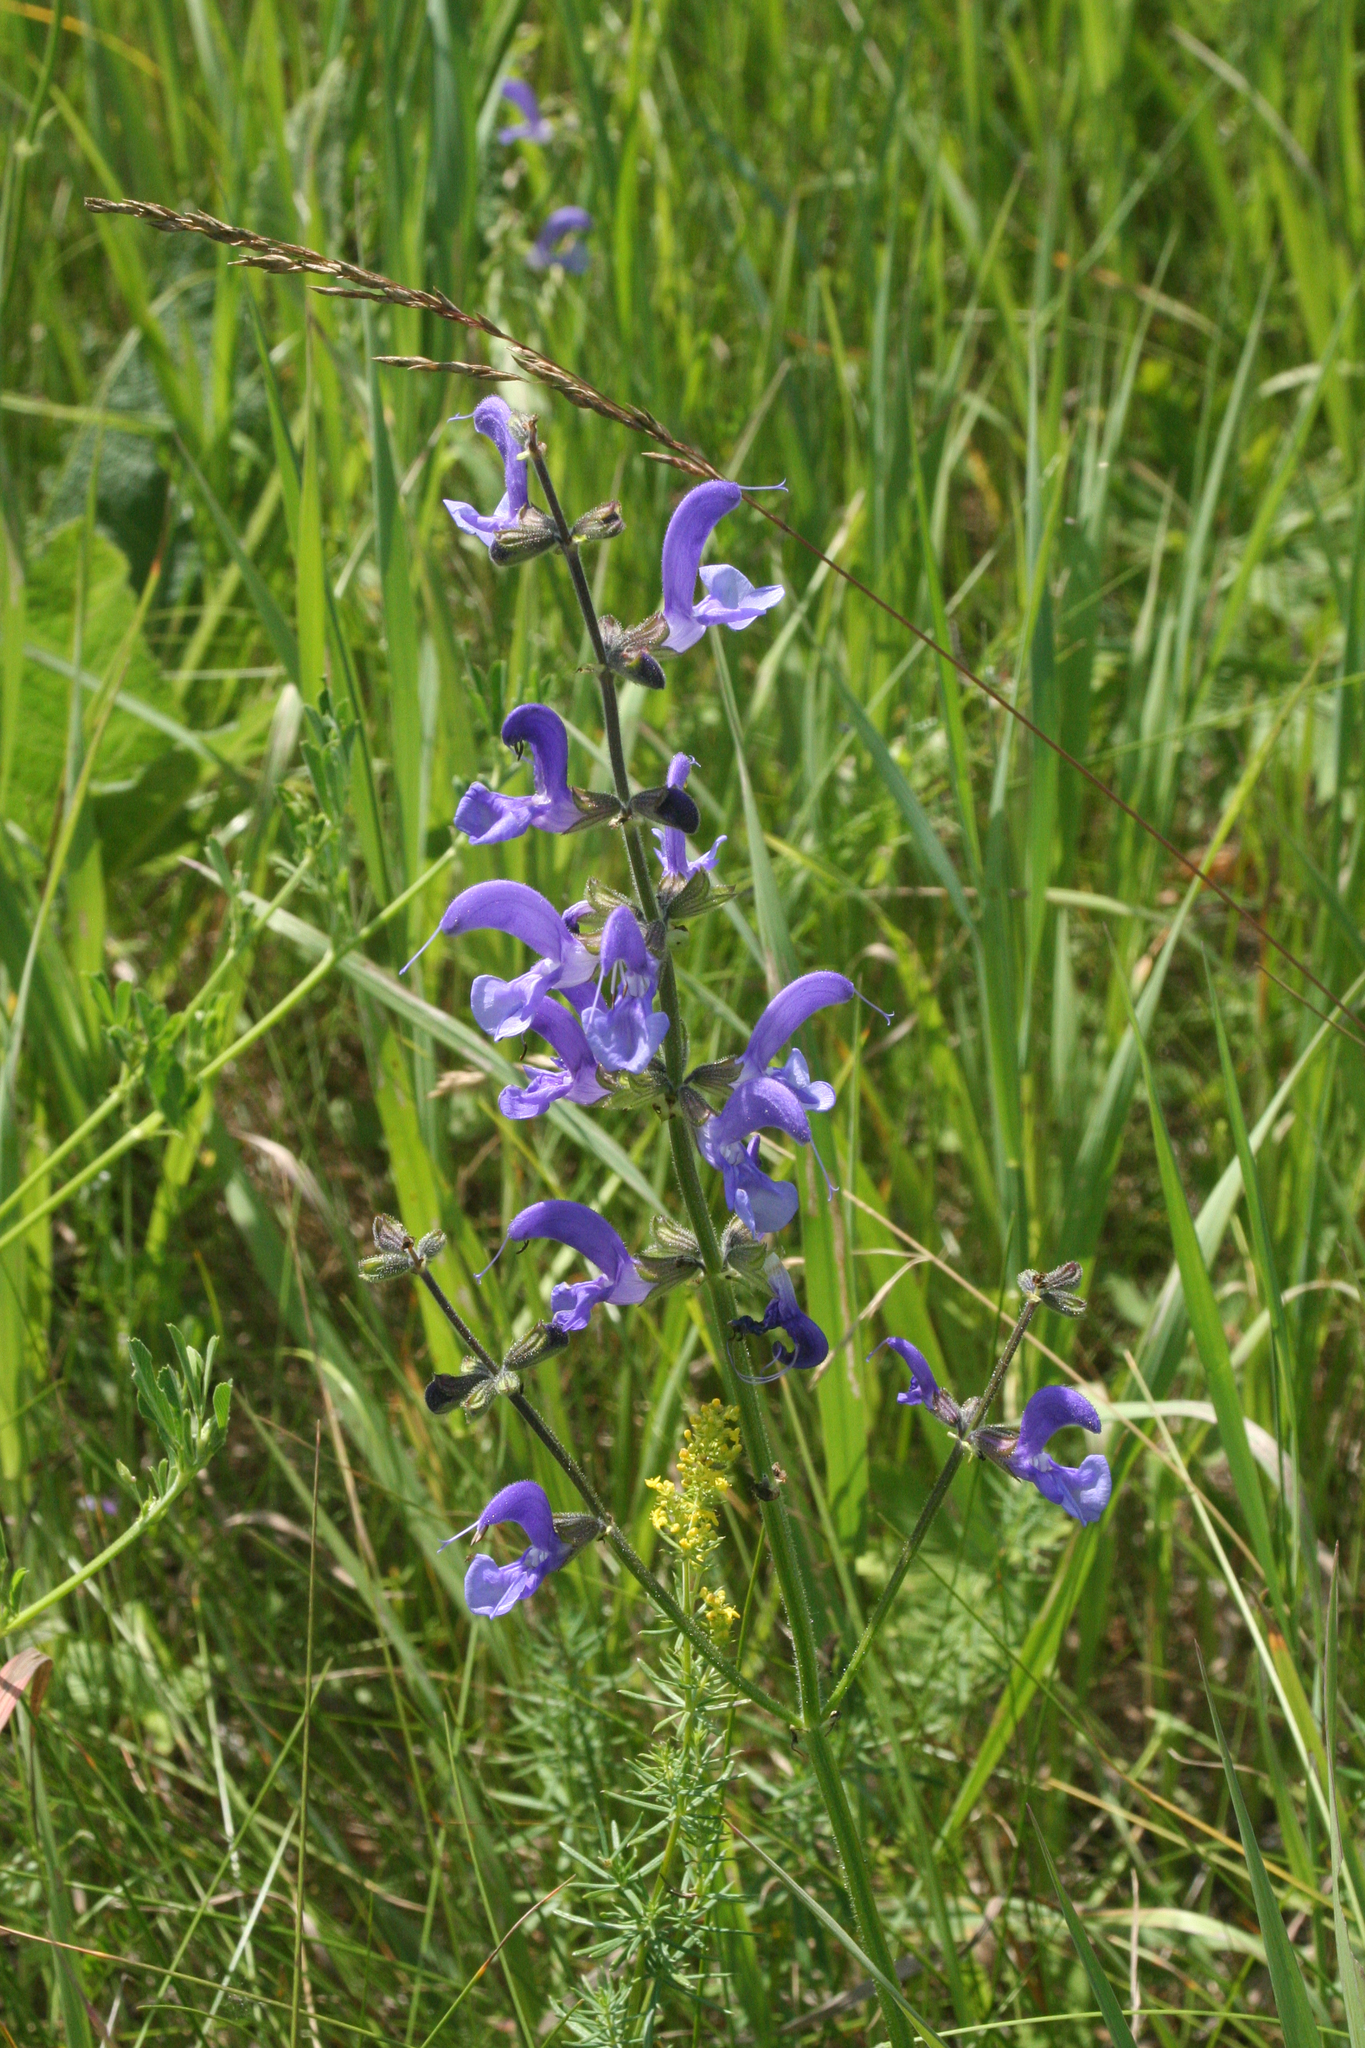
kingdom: Plantae
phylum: Tracheophyta
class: Magnoliopsida
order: Lamiales
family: Lamiaceae
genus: Salvia
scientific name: Salvia pratensis
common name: Meadow sage
